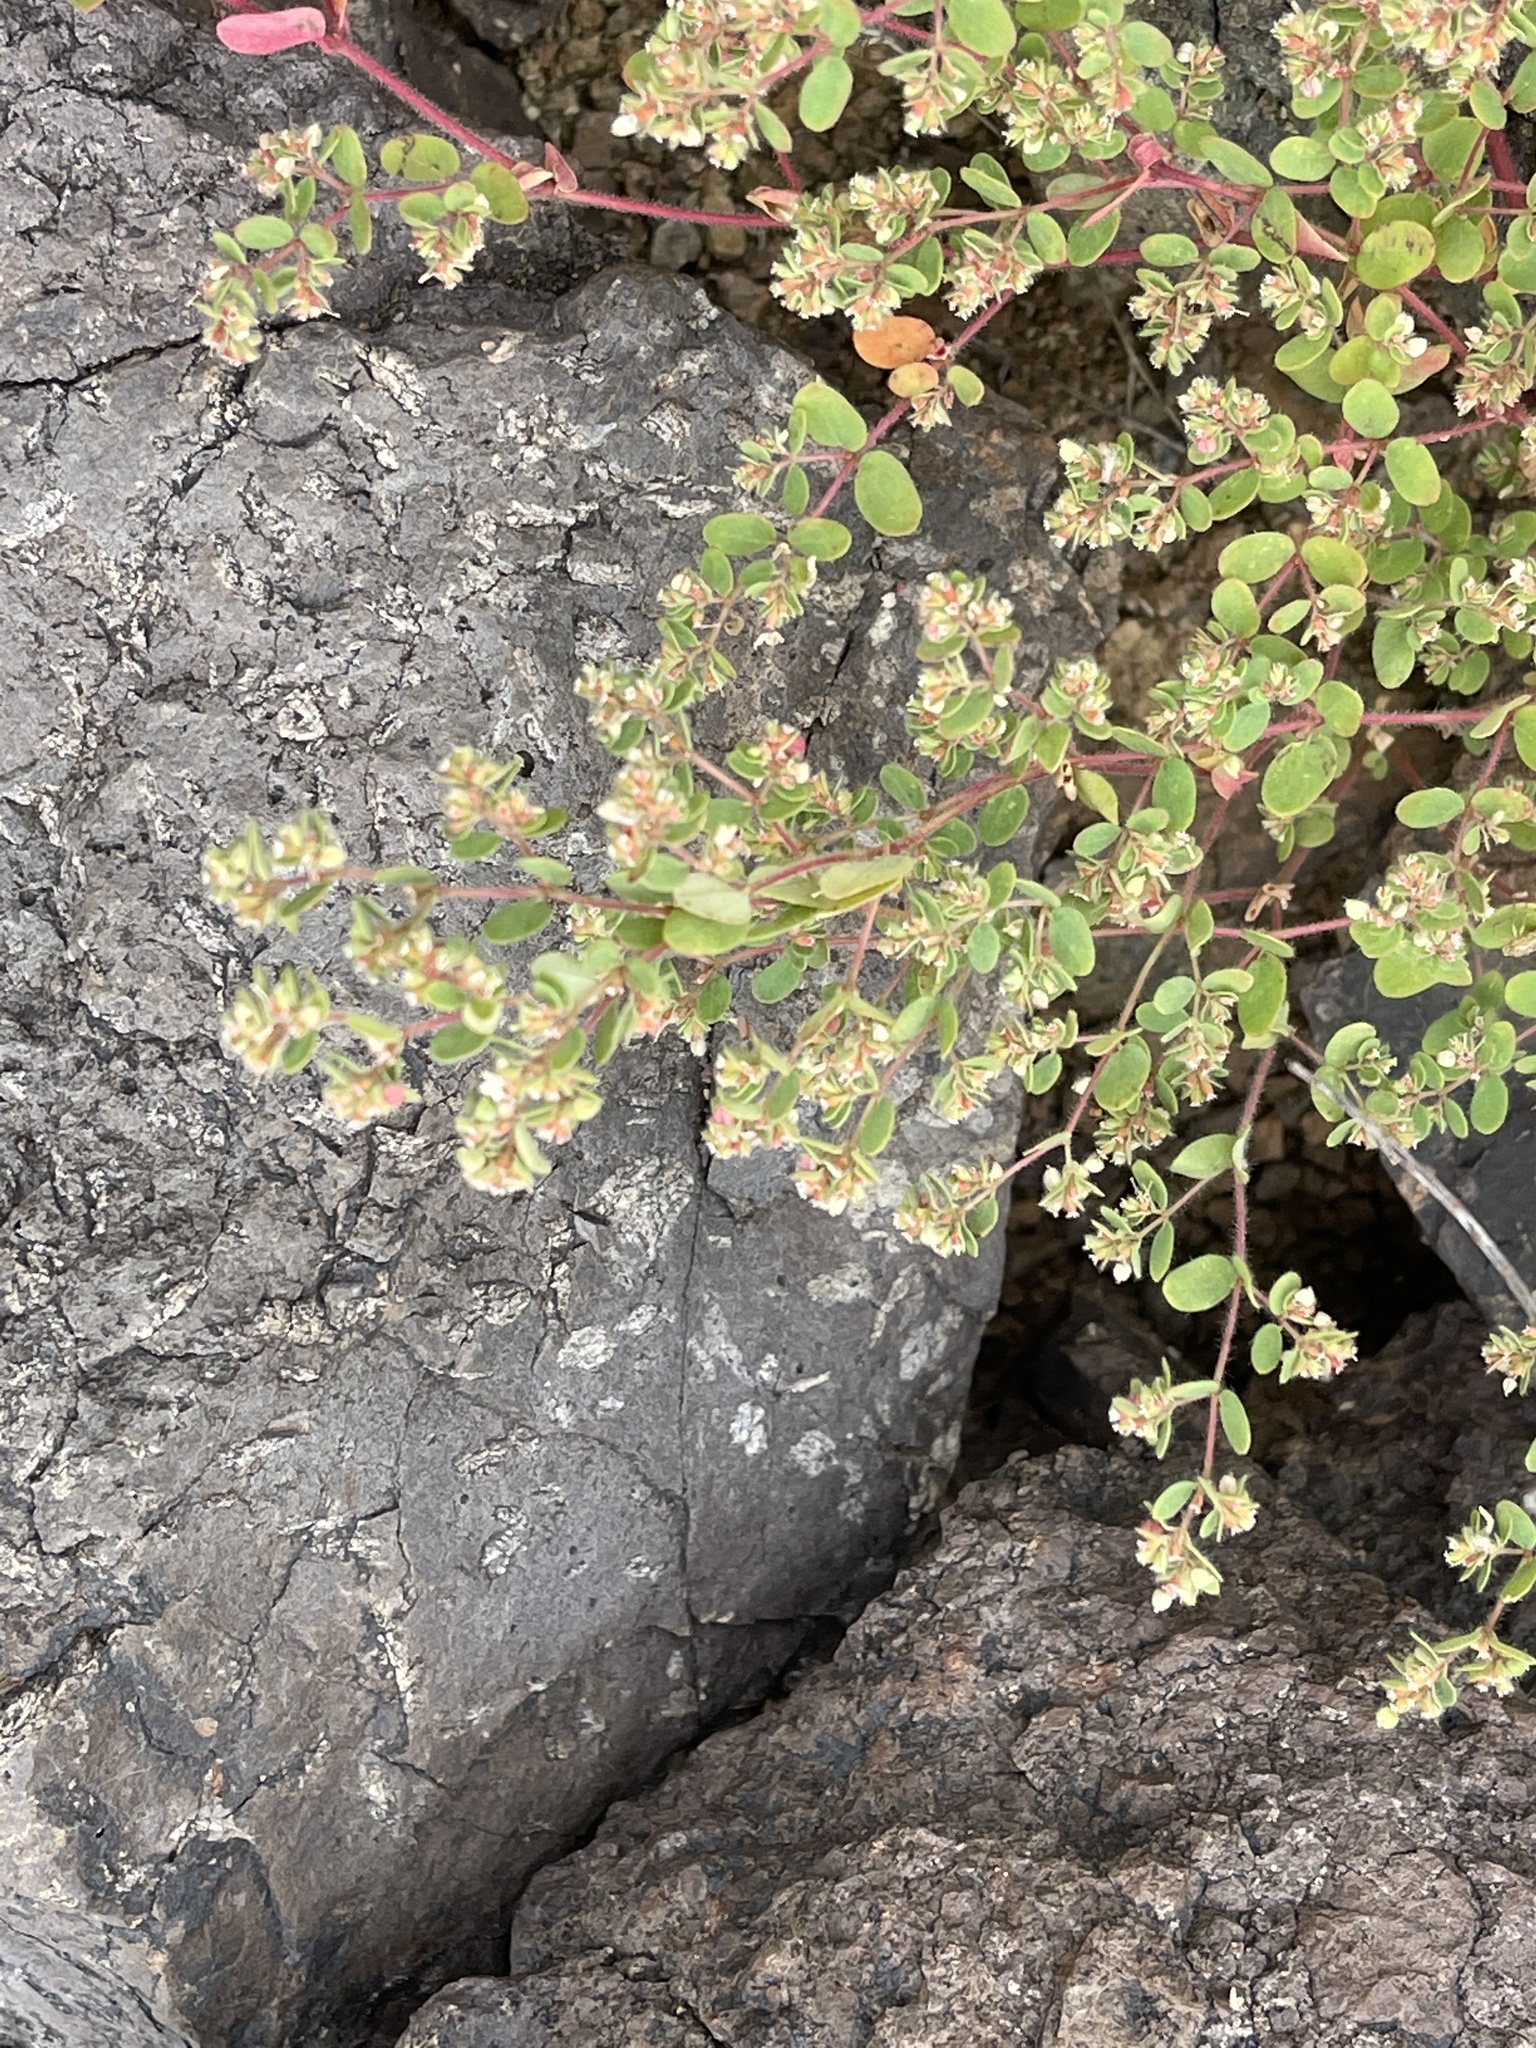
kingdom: Plantae
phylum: Tracheophyta
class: Magnoliopsida
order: Malpighiales
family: Euphorbiaceae
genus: Euphorbia
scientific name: Euphorbia setiloba
